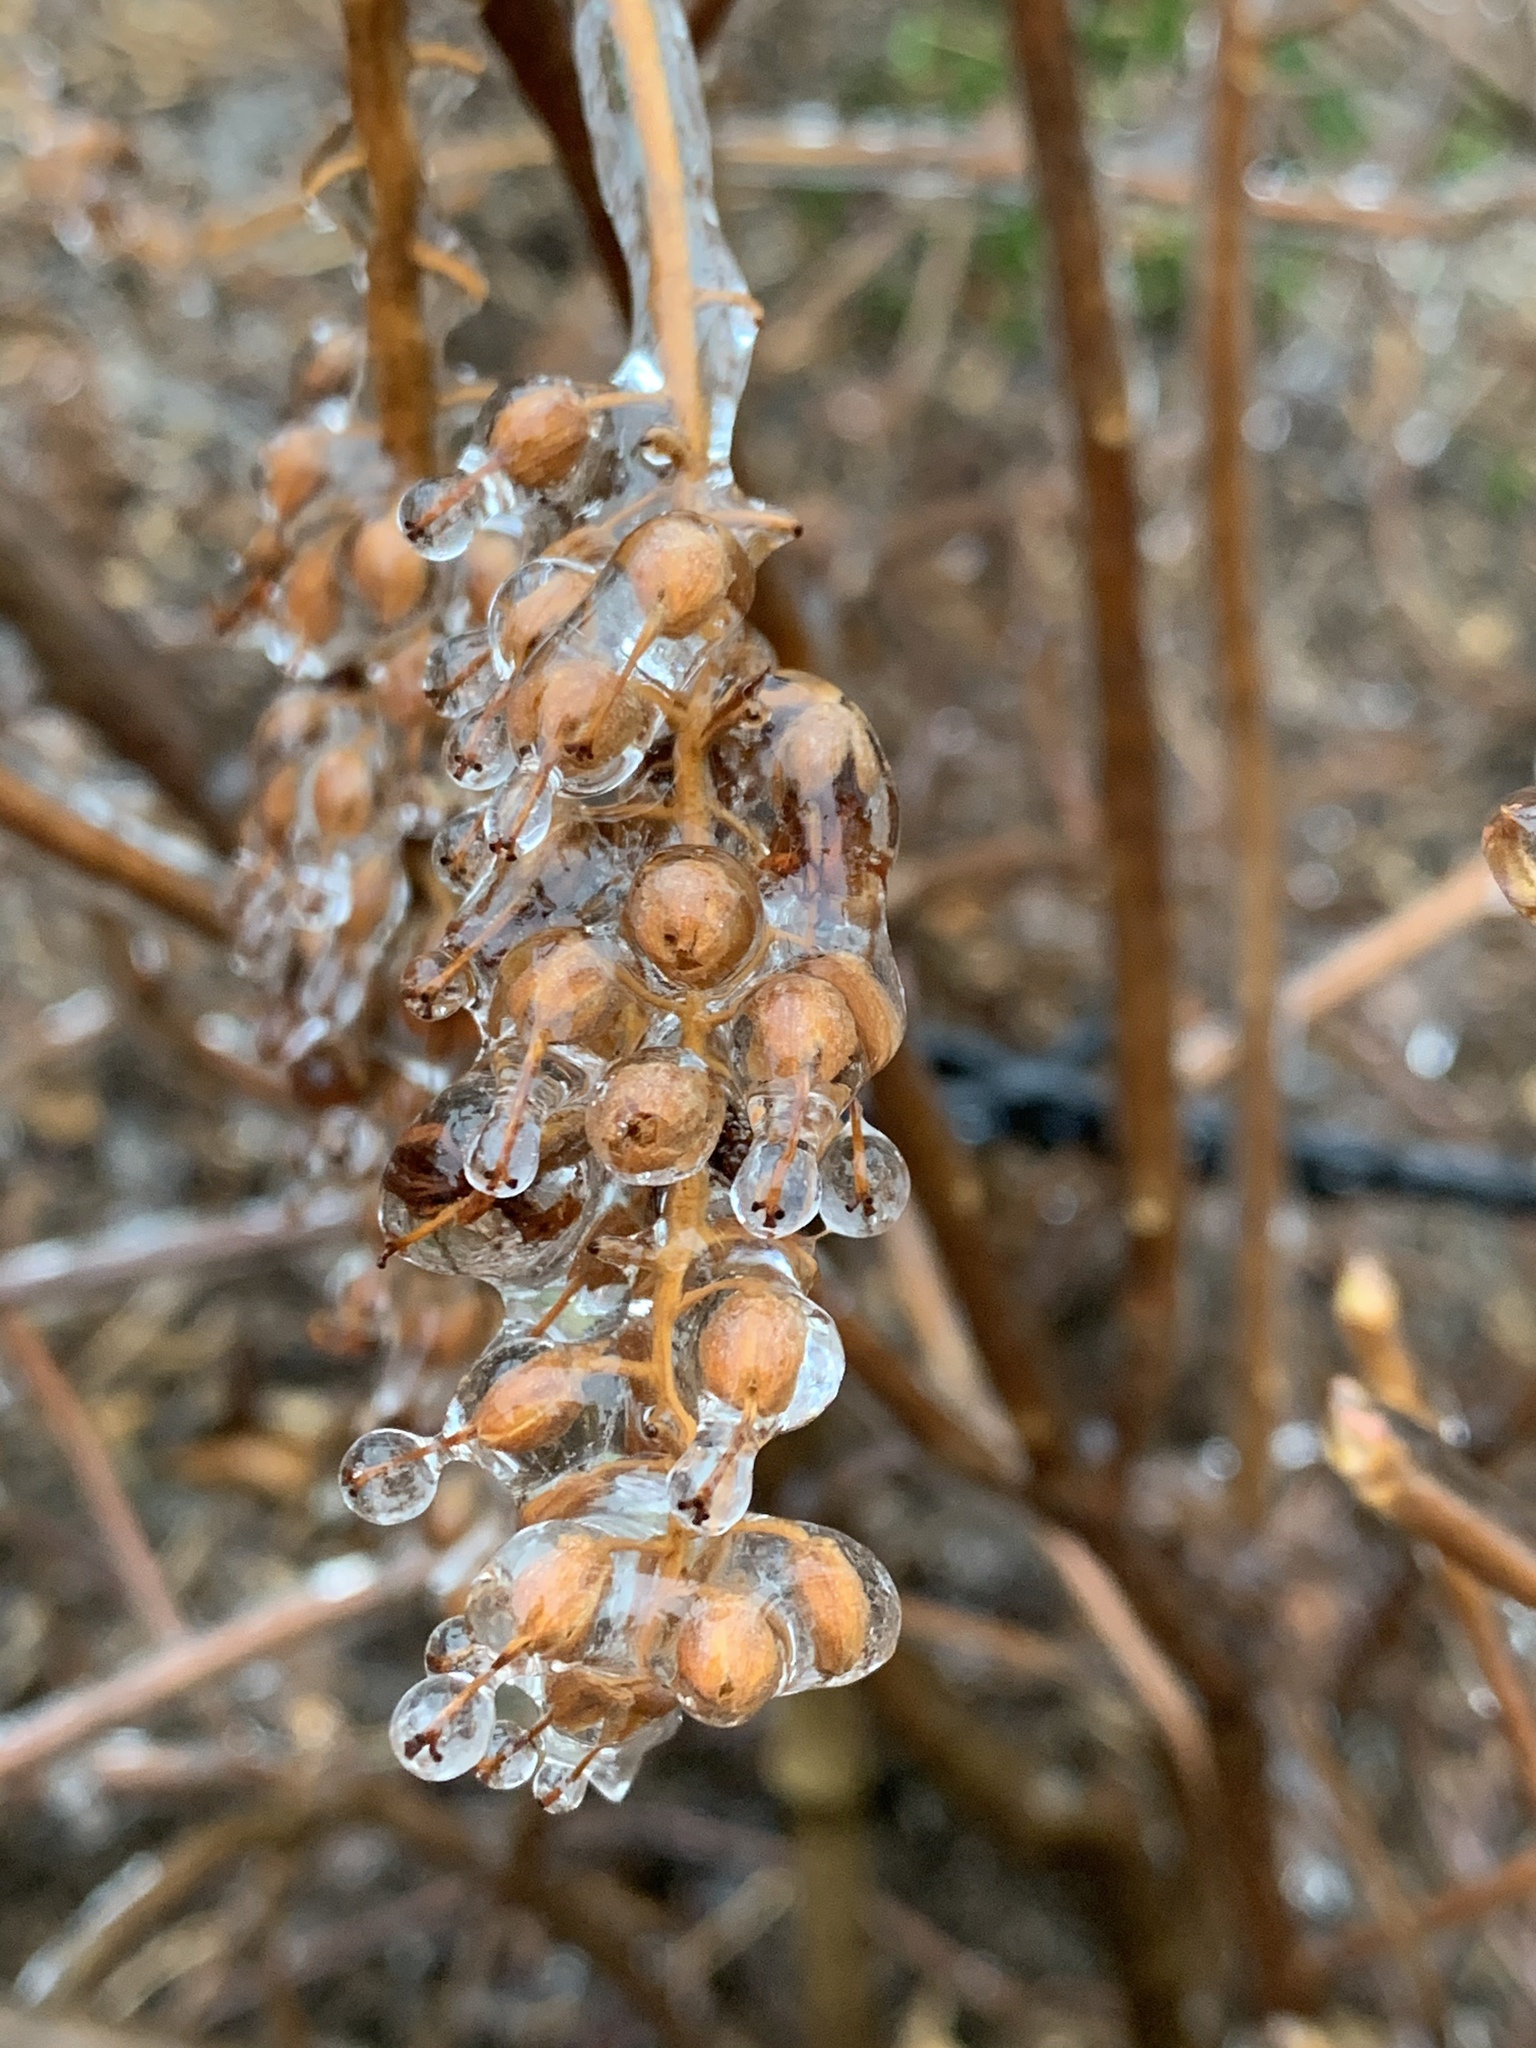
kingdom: Plantae
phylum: Tracheophyta
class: Magnoliopsida
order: Ericales
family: Clethraceae
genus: Clethra
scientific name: Clethra alnifolia
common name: Sweet pepperbush
